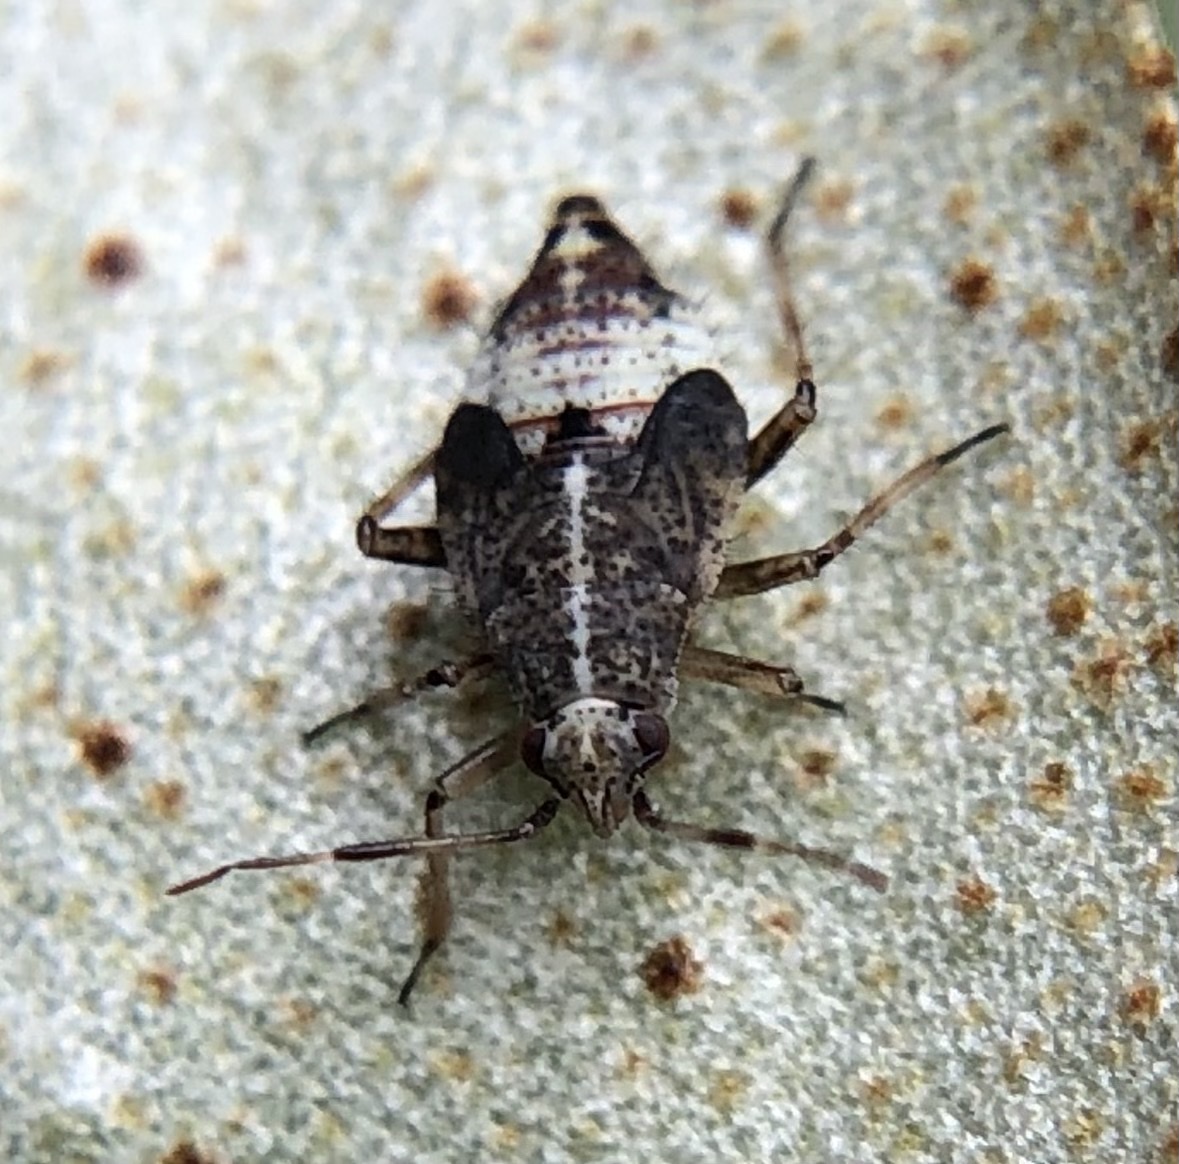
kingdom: Animalia
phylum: Arthropoda
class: Insecta
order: Hemiptera
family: Miridae
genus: Deraeocoris
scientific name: Deraeocoris flavilinea
